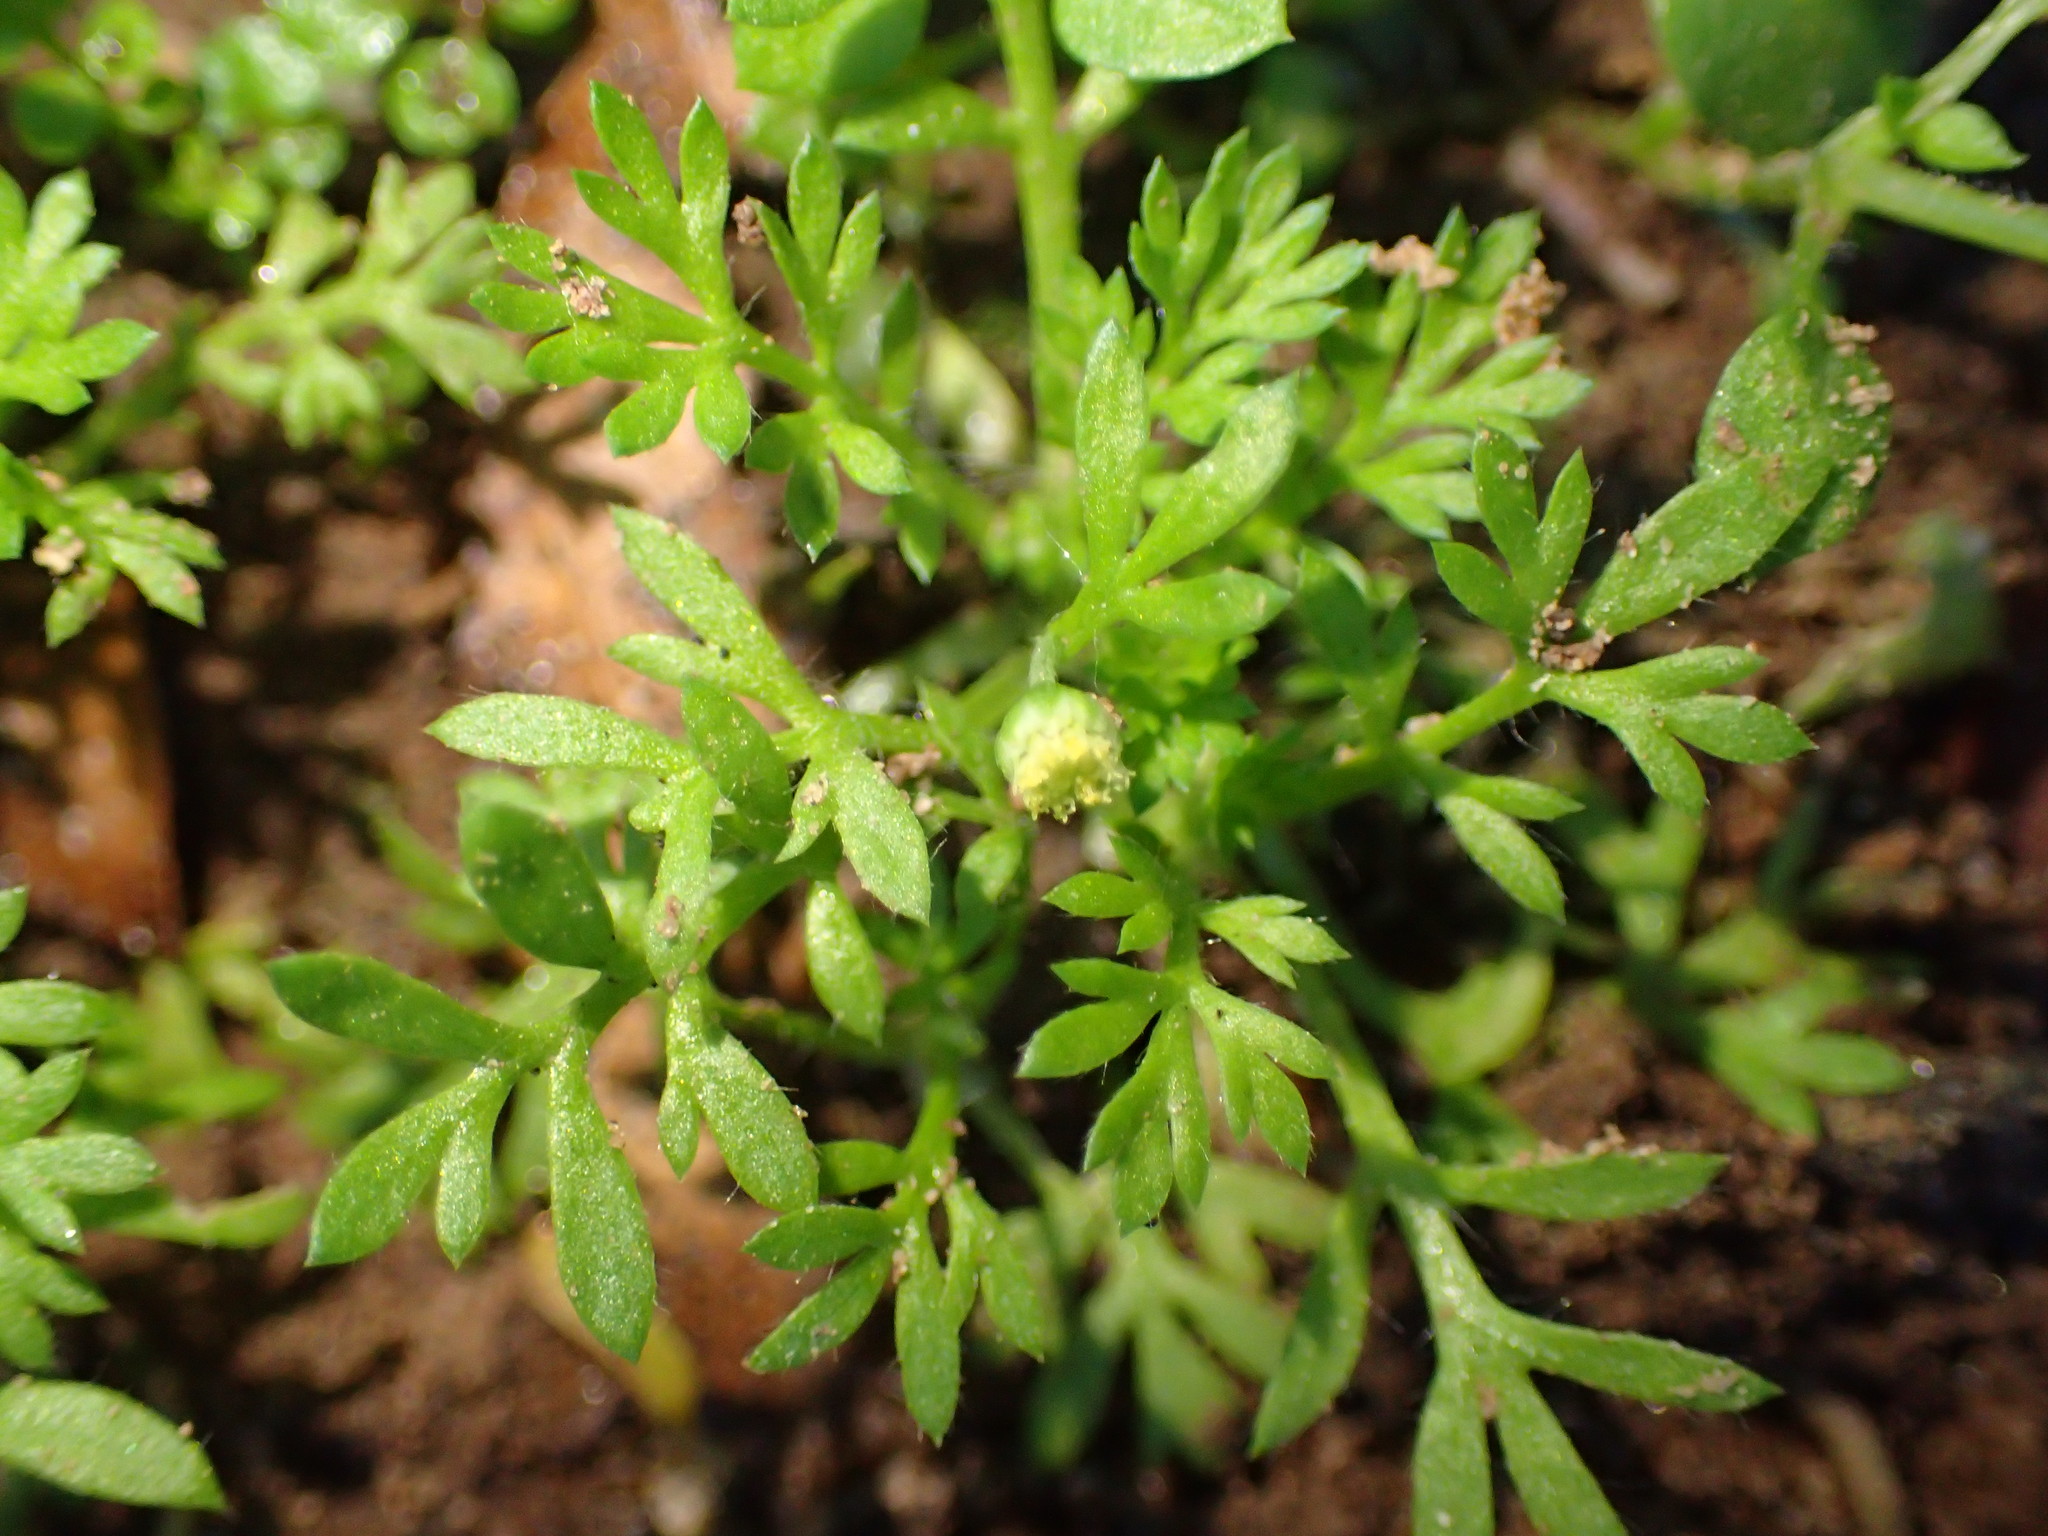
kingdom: Plantae
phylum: Tracheophyta
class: Magnoliopsida
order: Asterales
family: Asteraceae
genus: Cotula
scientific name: Cotula australis
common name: Australian waterbuttons
